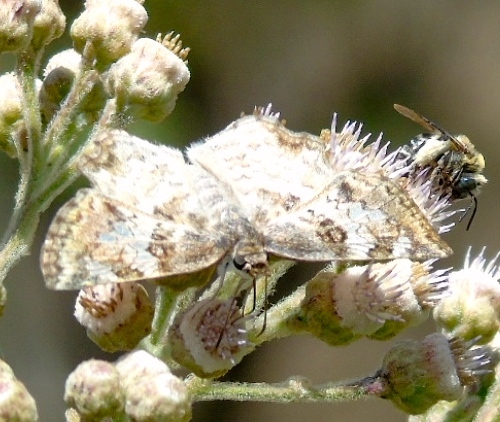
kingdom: Animalia
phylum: Arthropoda
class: Insecta
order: Lepidoptera
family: Hesperiidae
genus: Antigonus
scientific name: Antigonus emorsa
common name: White spurwing
